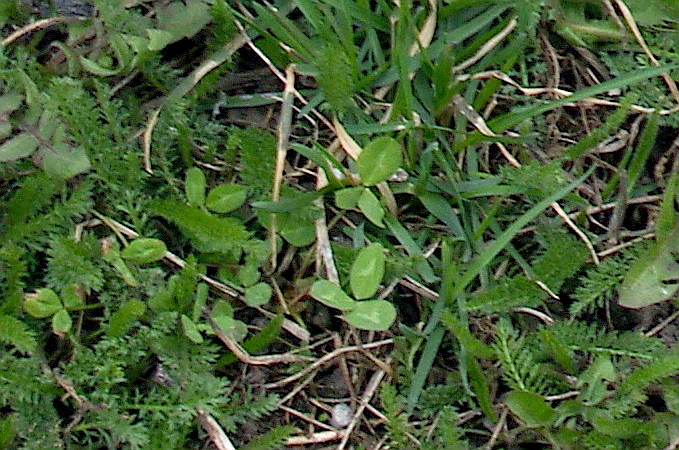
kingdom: Plantae
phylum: Tracheophyta
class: Magnoliopsida
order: Fabales
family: Fabaceae
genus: Trifolium
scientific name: Trifolium pratense
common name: Red clover
